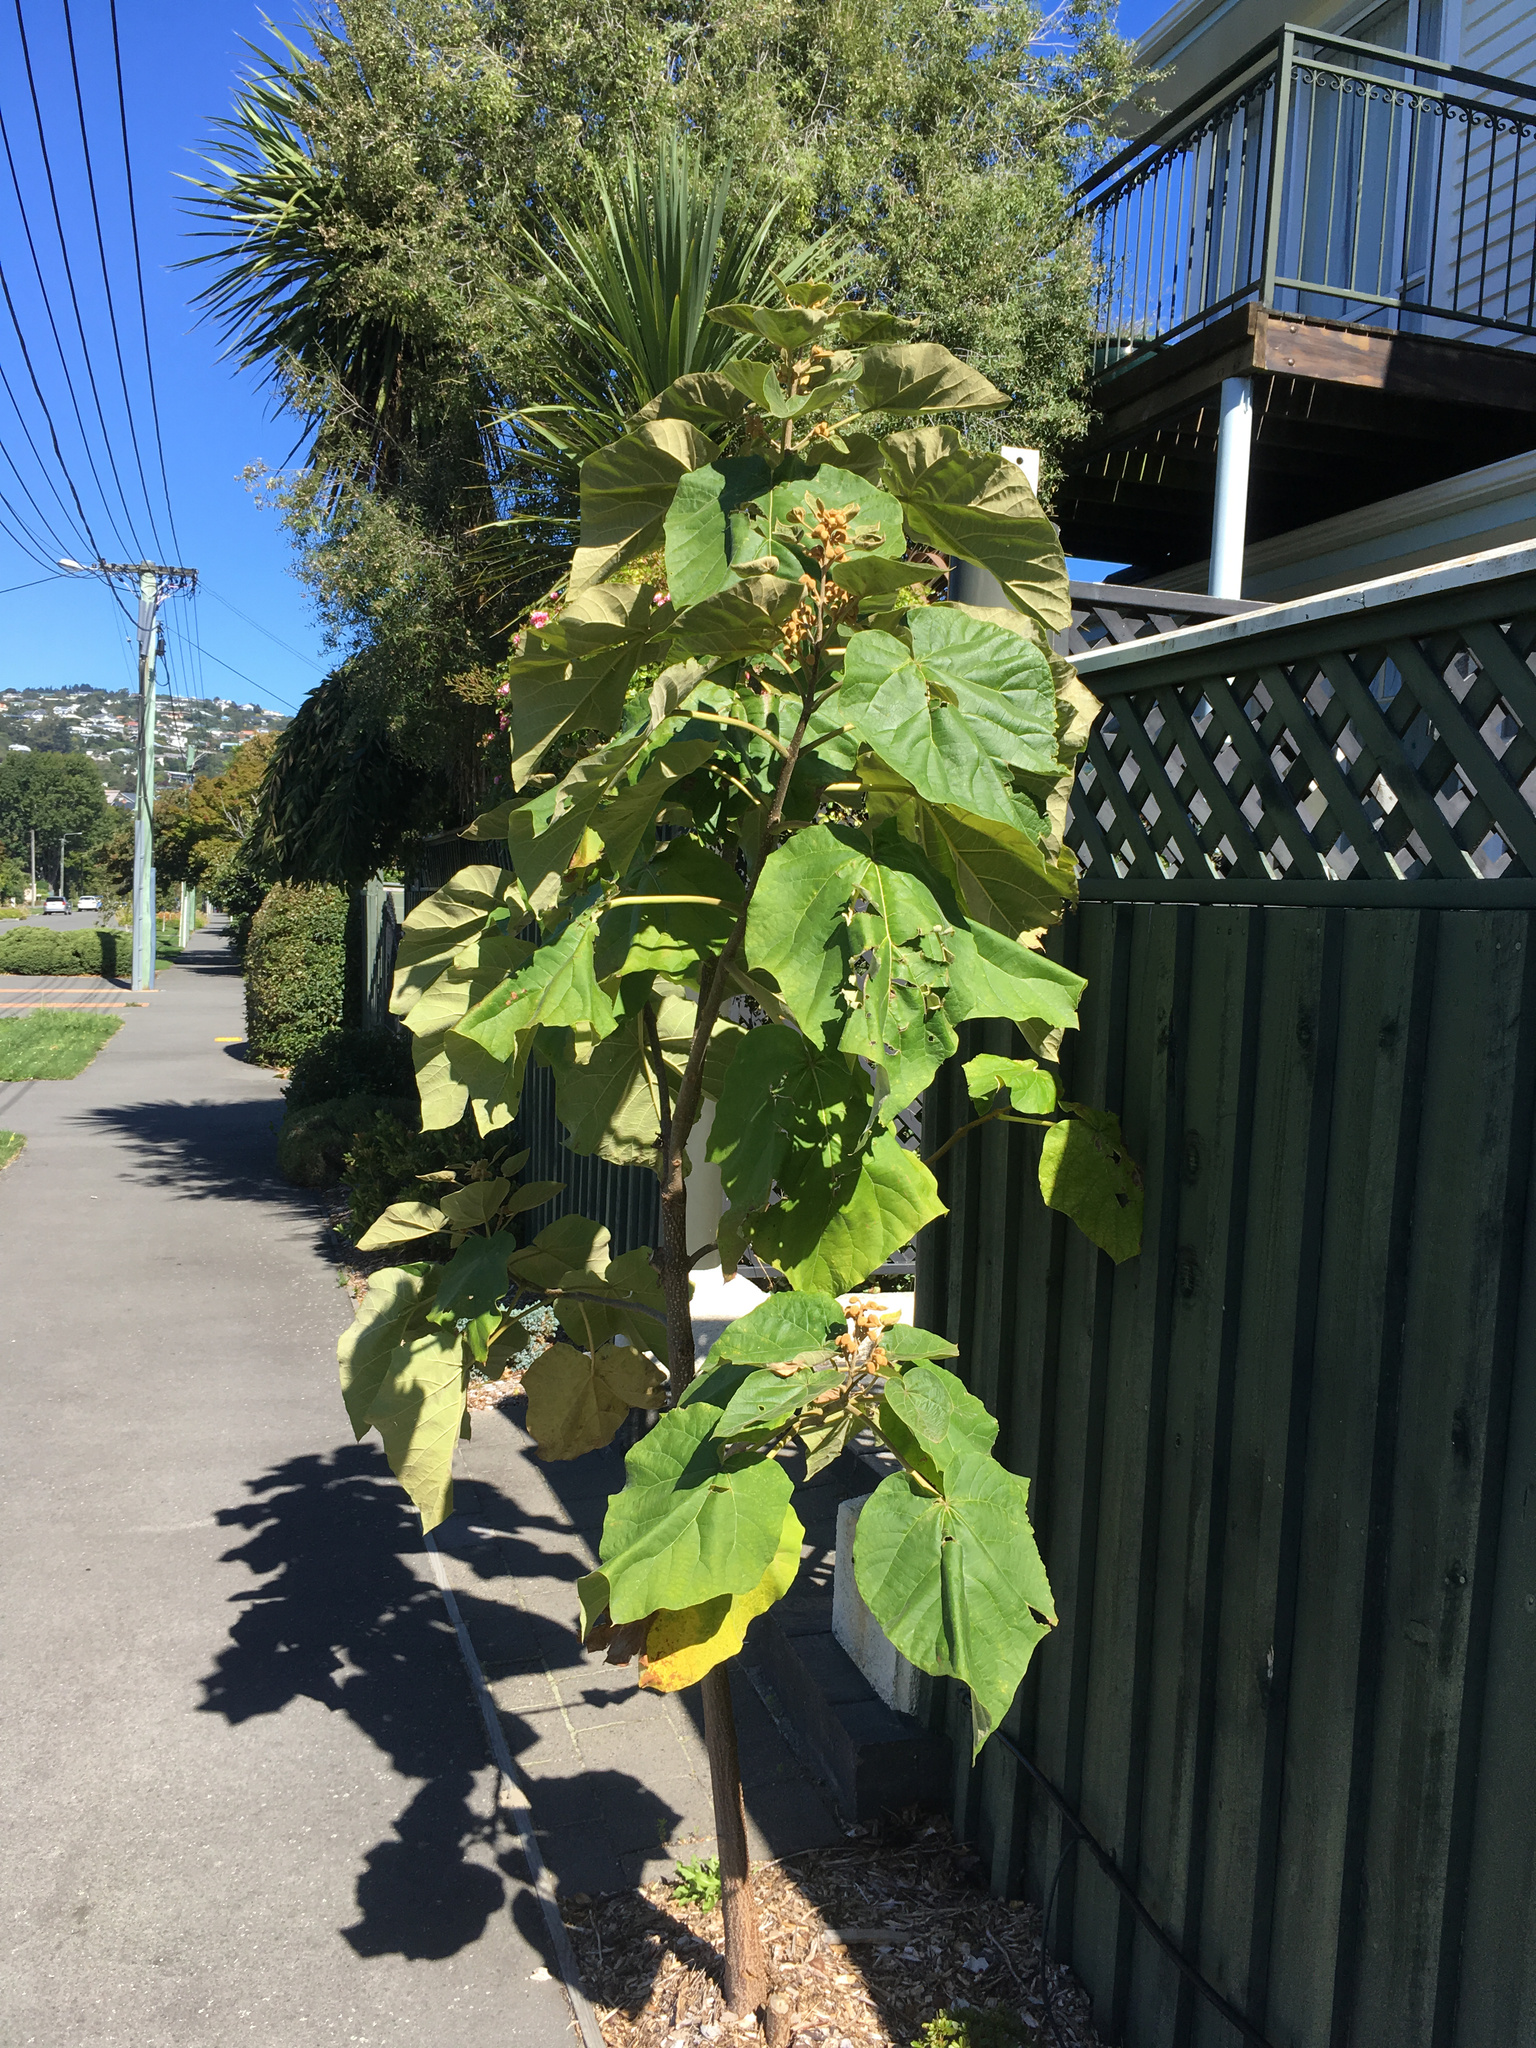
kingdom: Plantae
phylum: Tracheophyta
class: Magnoliopsida
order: Lamiales
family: Paulowniaceae
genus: Paulownia
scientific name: Paulownia tomentosa
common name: Foxglove-tree
